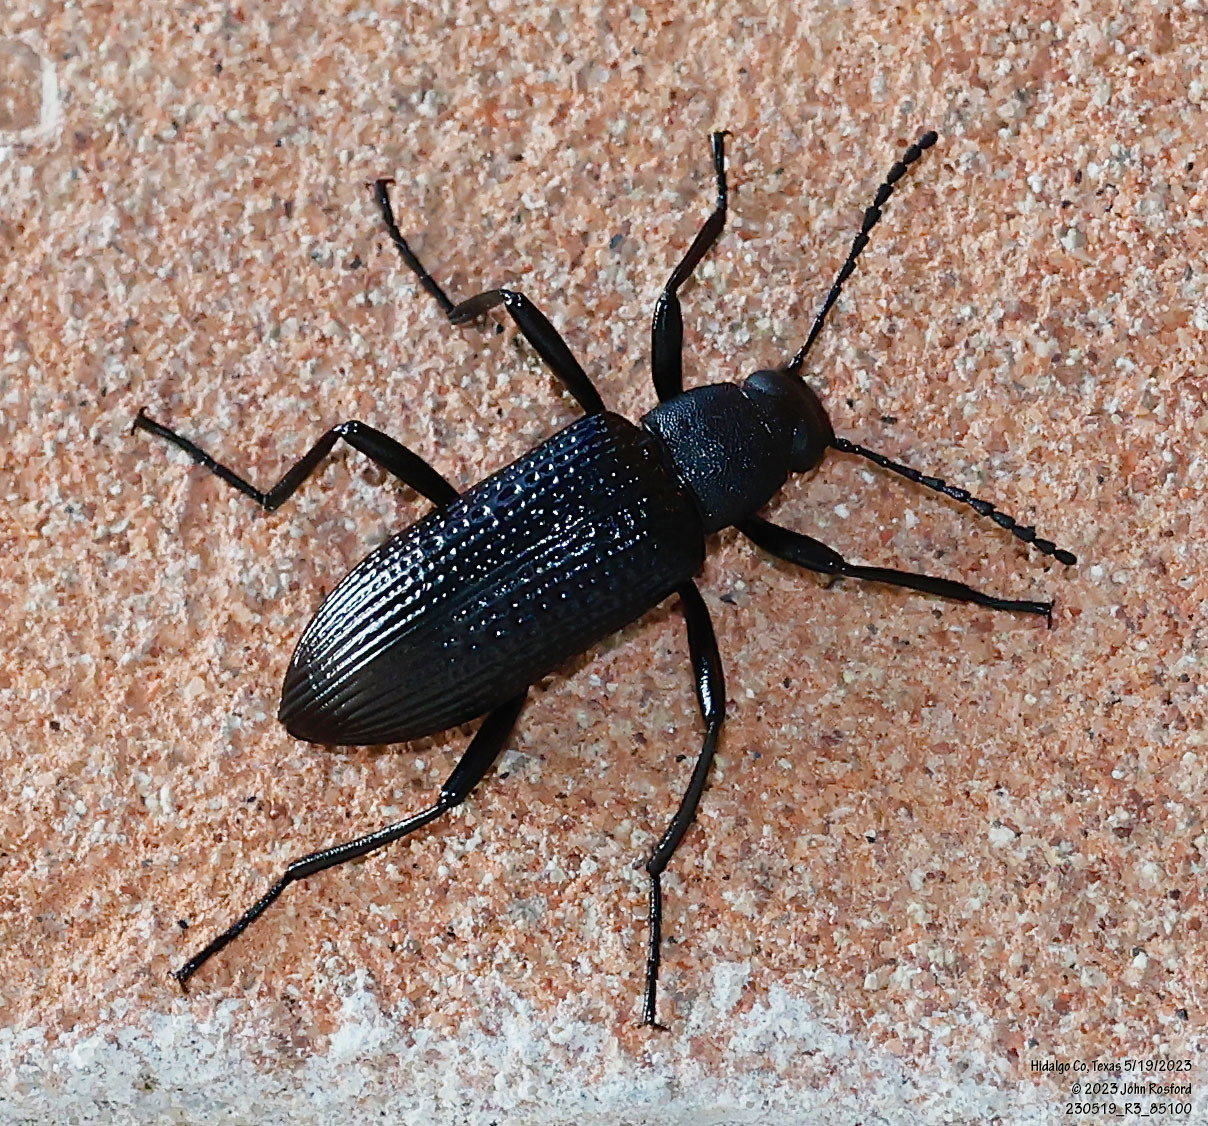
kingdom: Animalia
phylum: Arthropoda
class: Insecta
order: Coleoptera
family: Tenebrionidae
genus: Strongylium
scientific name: Strongylium hemistriatum
